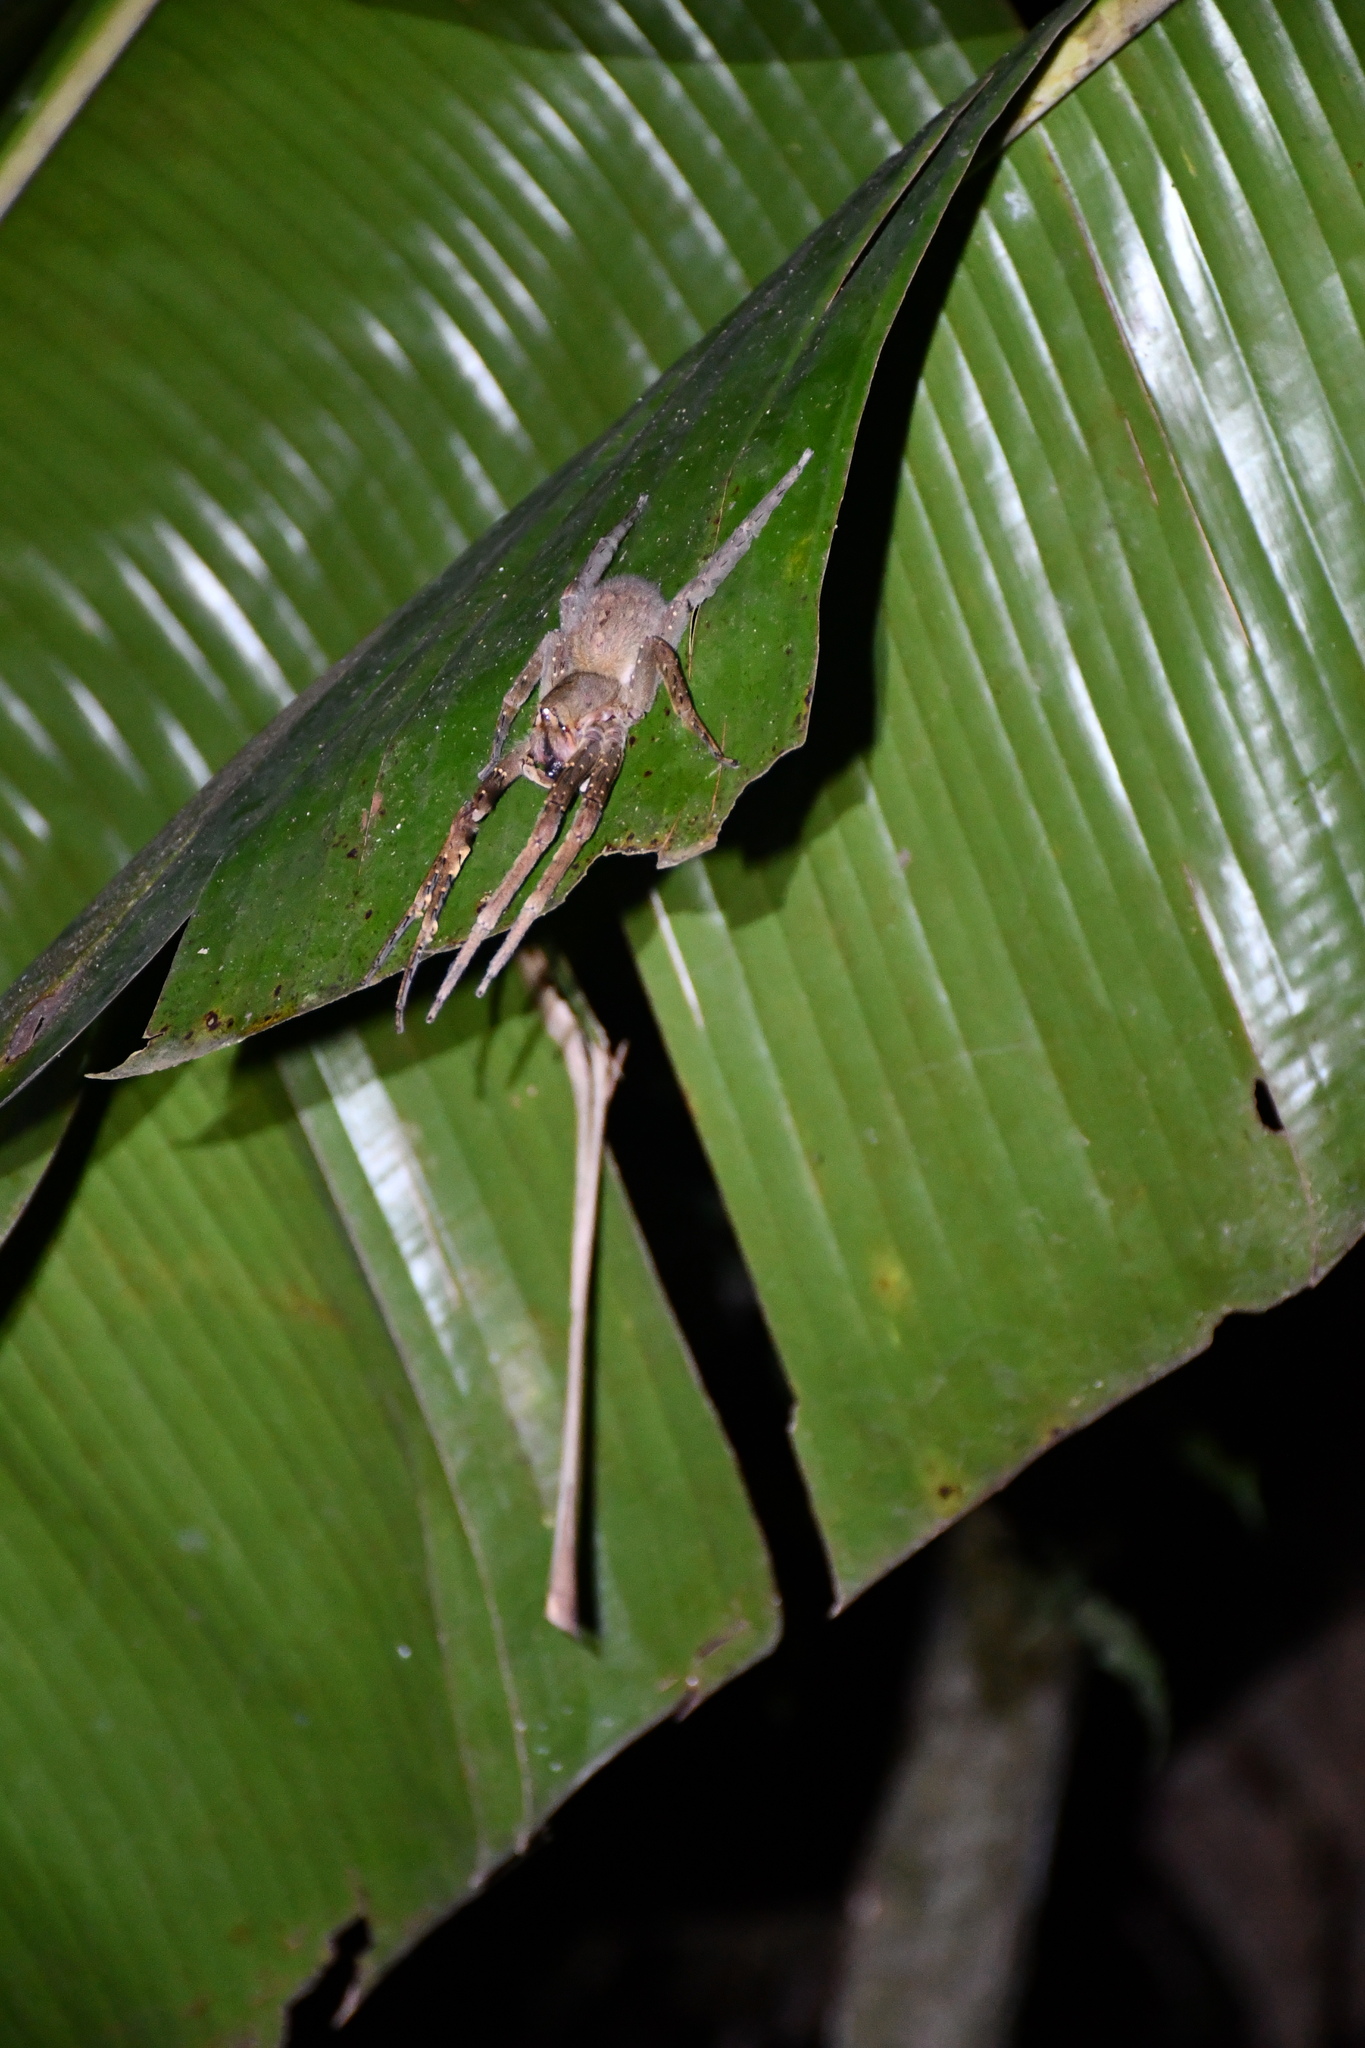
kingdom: Animalia
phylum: Arthropoda
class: Arachnida
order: Araneae
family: Ctenidae
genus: Phoneutria
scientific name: Phoneutria fera
